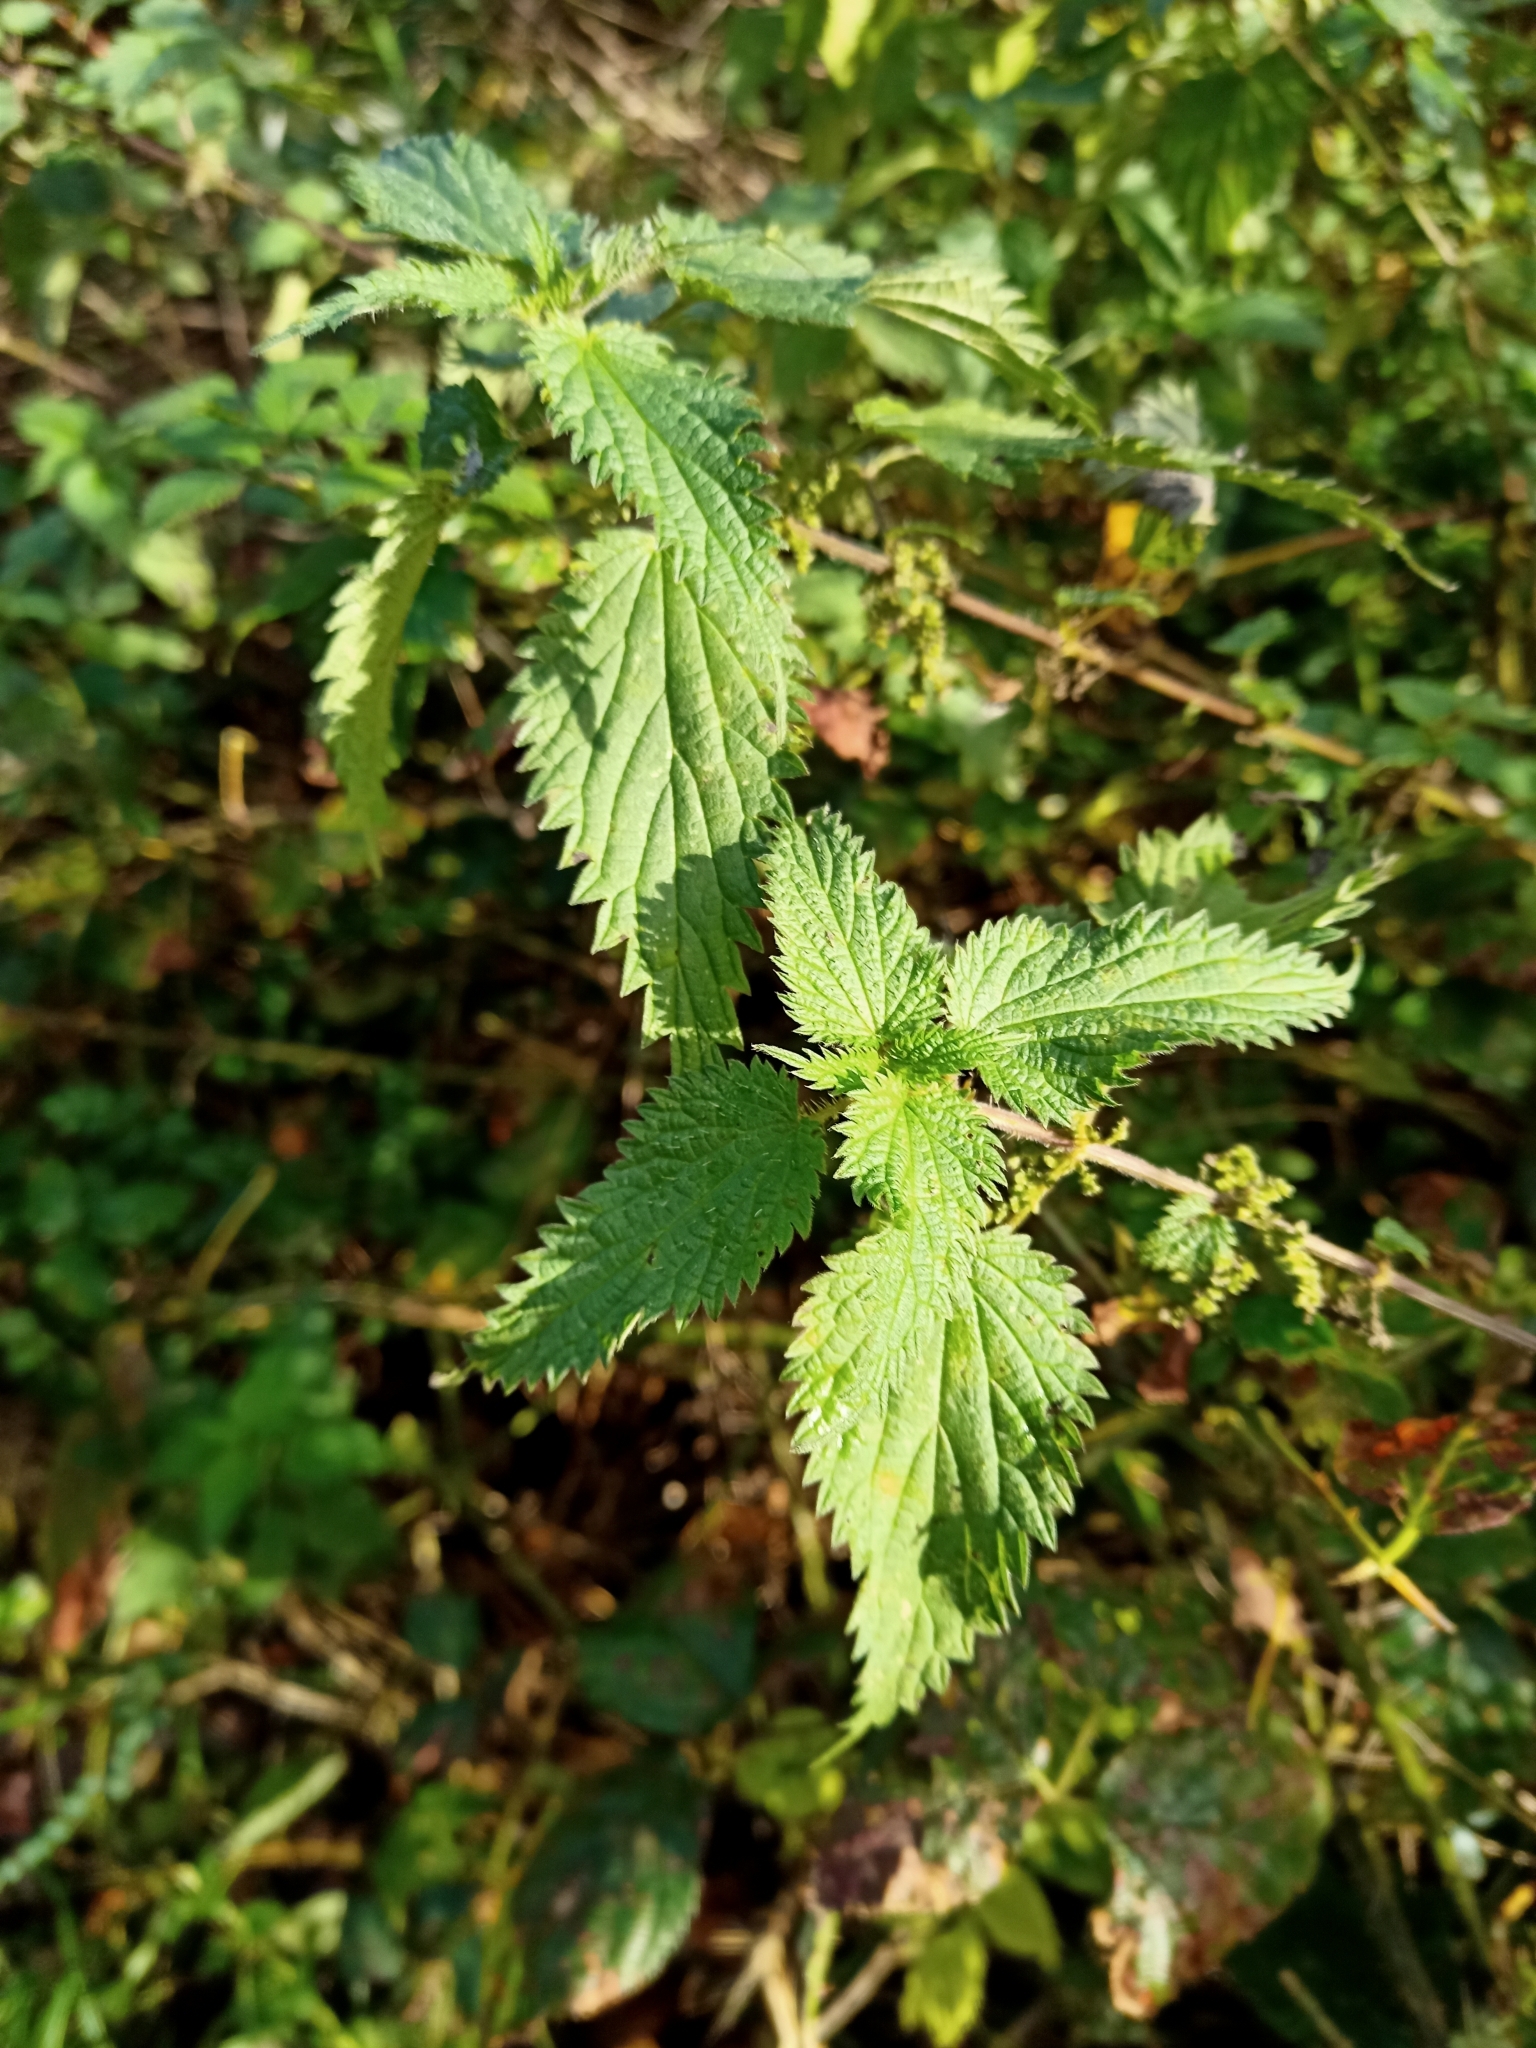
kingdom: Plantae
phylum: Tracheophyta
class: Magnoliopsida
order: Rosales
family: Urticaceae
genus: Urtica
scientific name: Urtica dioica
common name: Common nettle
